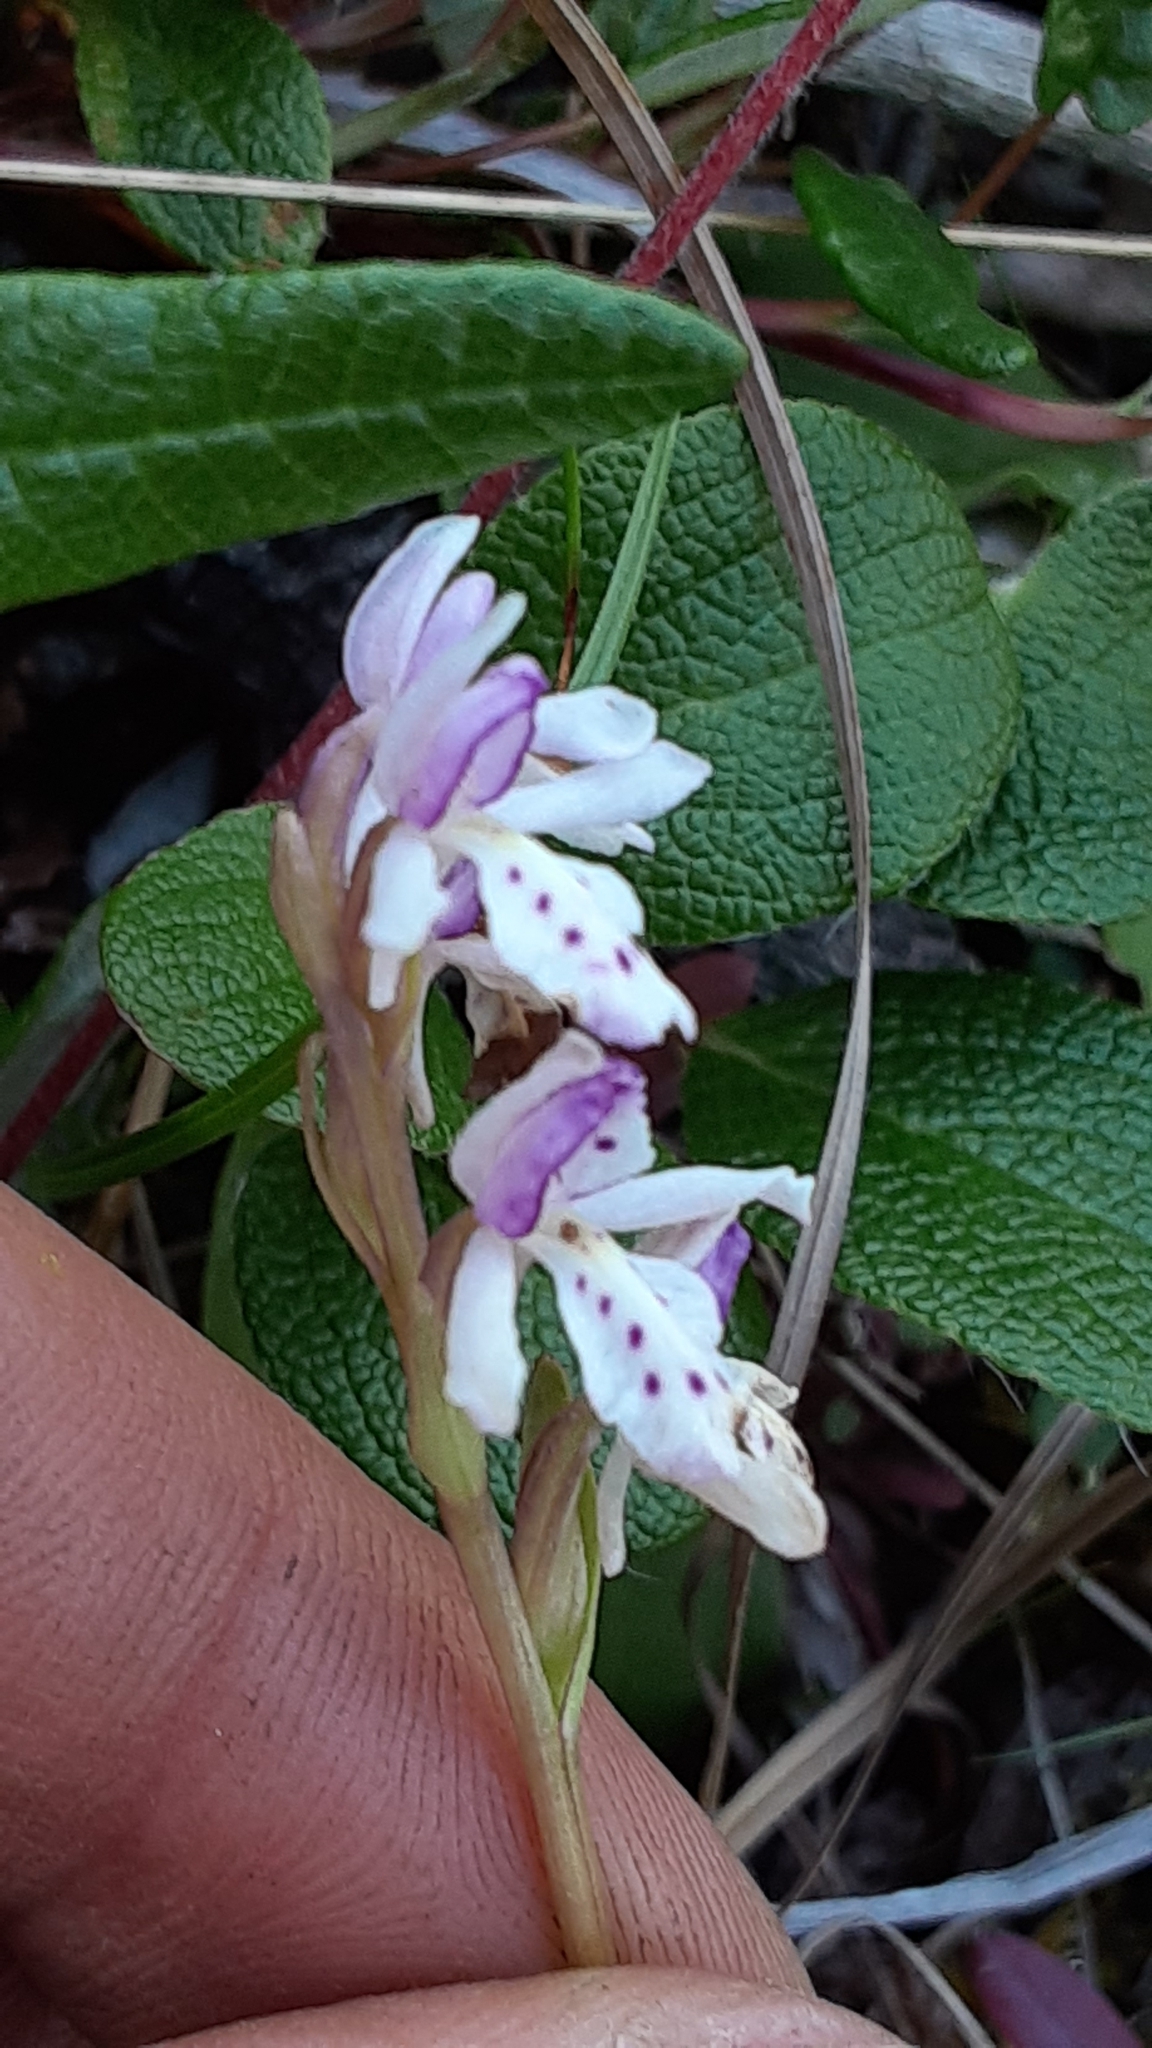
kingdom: Plantae
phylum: Tracheophyta
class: Liliopsida
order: Asparagales
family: Orchidaceae
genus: Galearis
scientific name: Galearis rotundifolia
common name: One-leaved orchis
